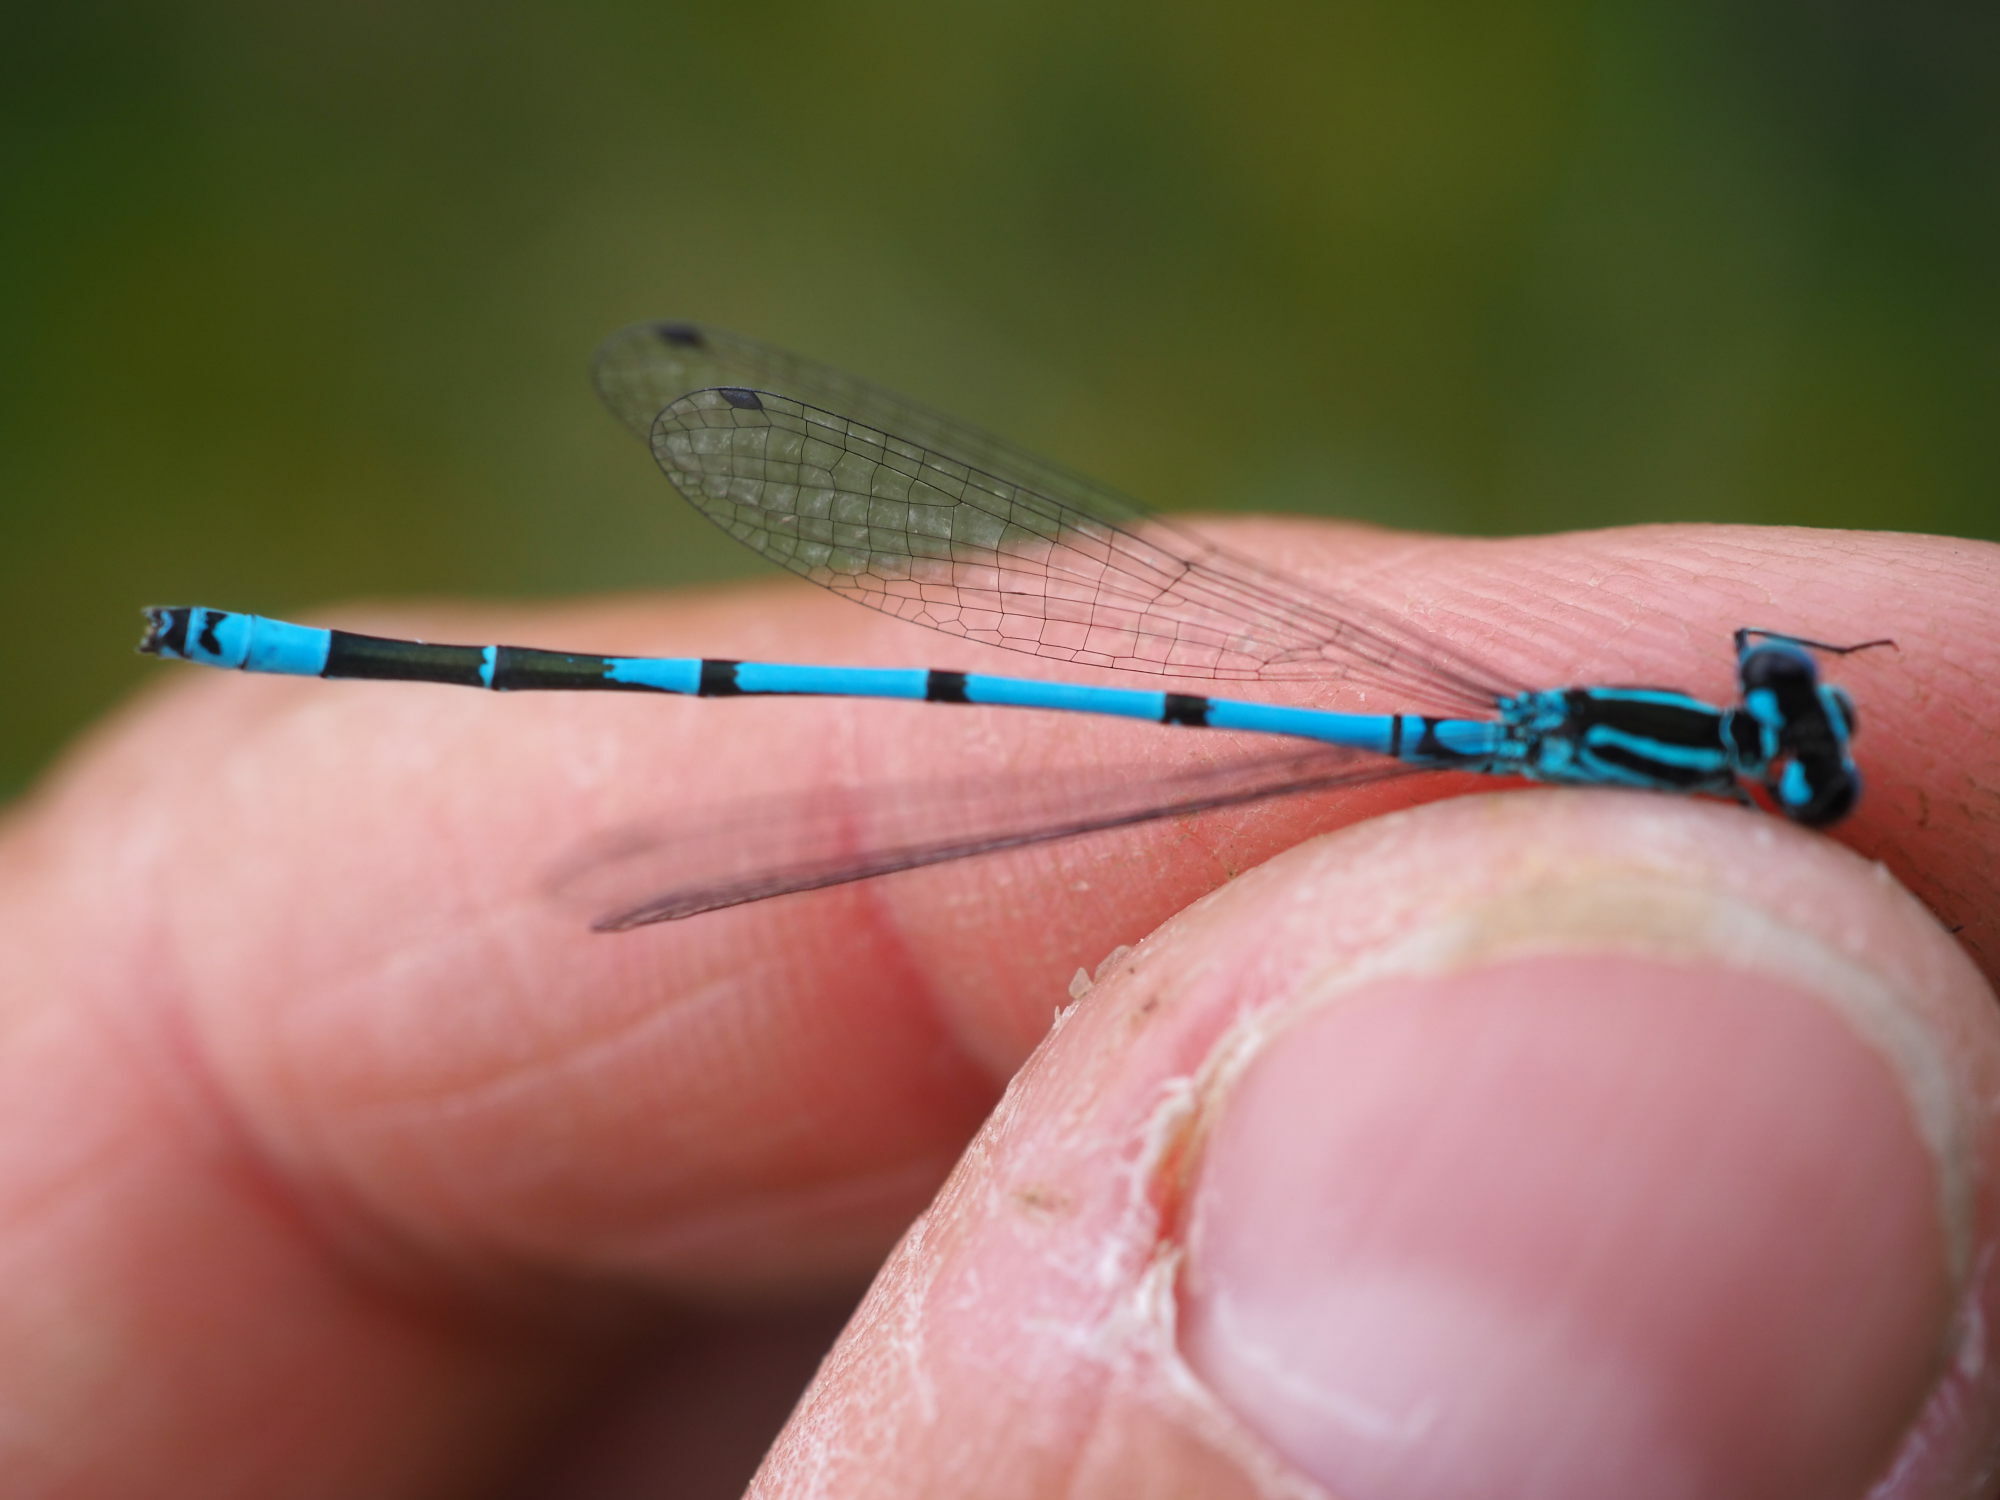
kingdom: Animalia
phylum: Arthropoda
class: Insecta
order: Odonata
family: Coenagrionidae
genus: Coenagrion
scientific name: Coenagrion puella
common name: Azure damselfly
